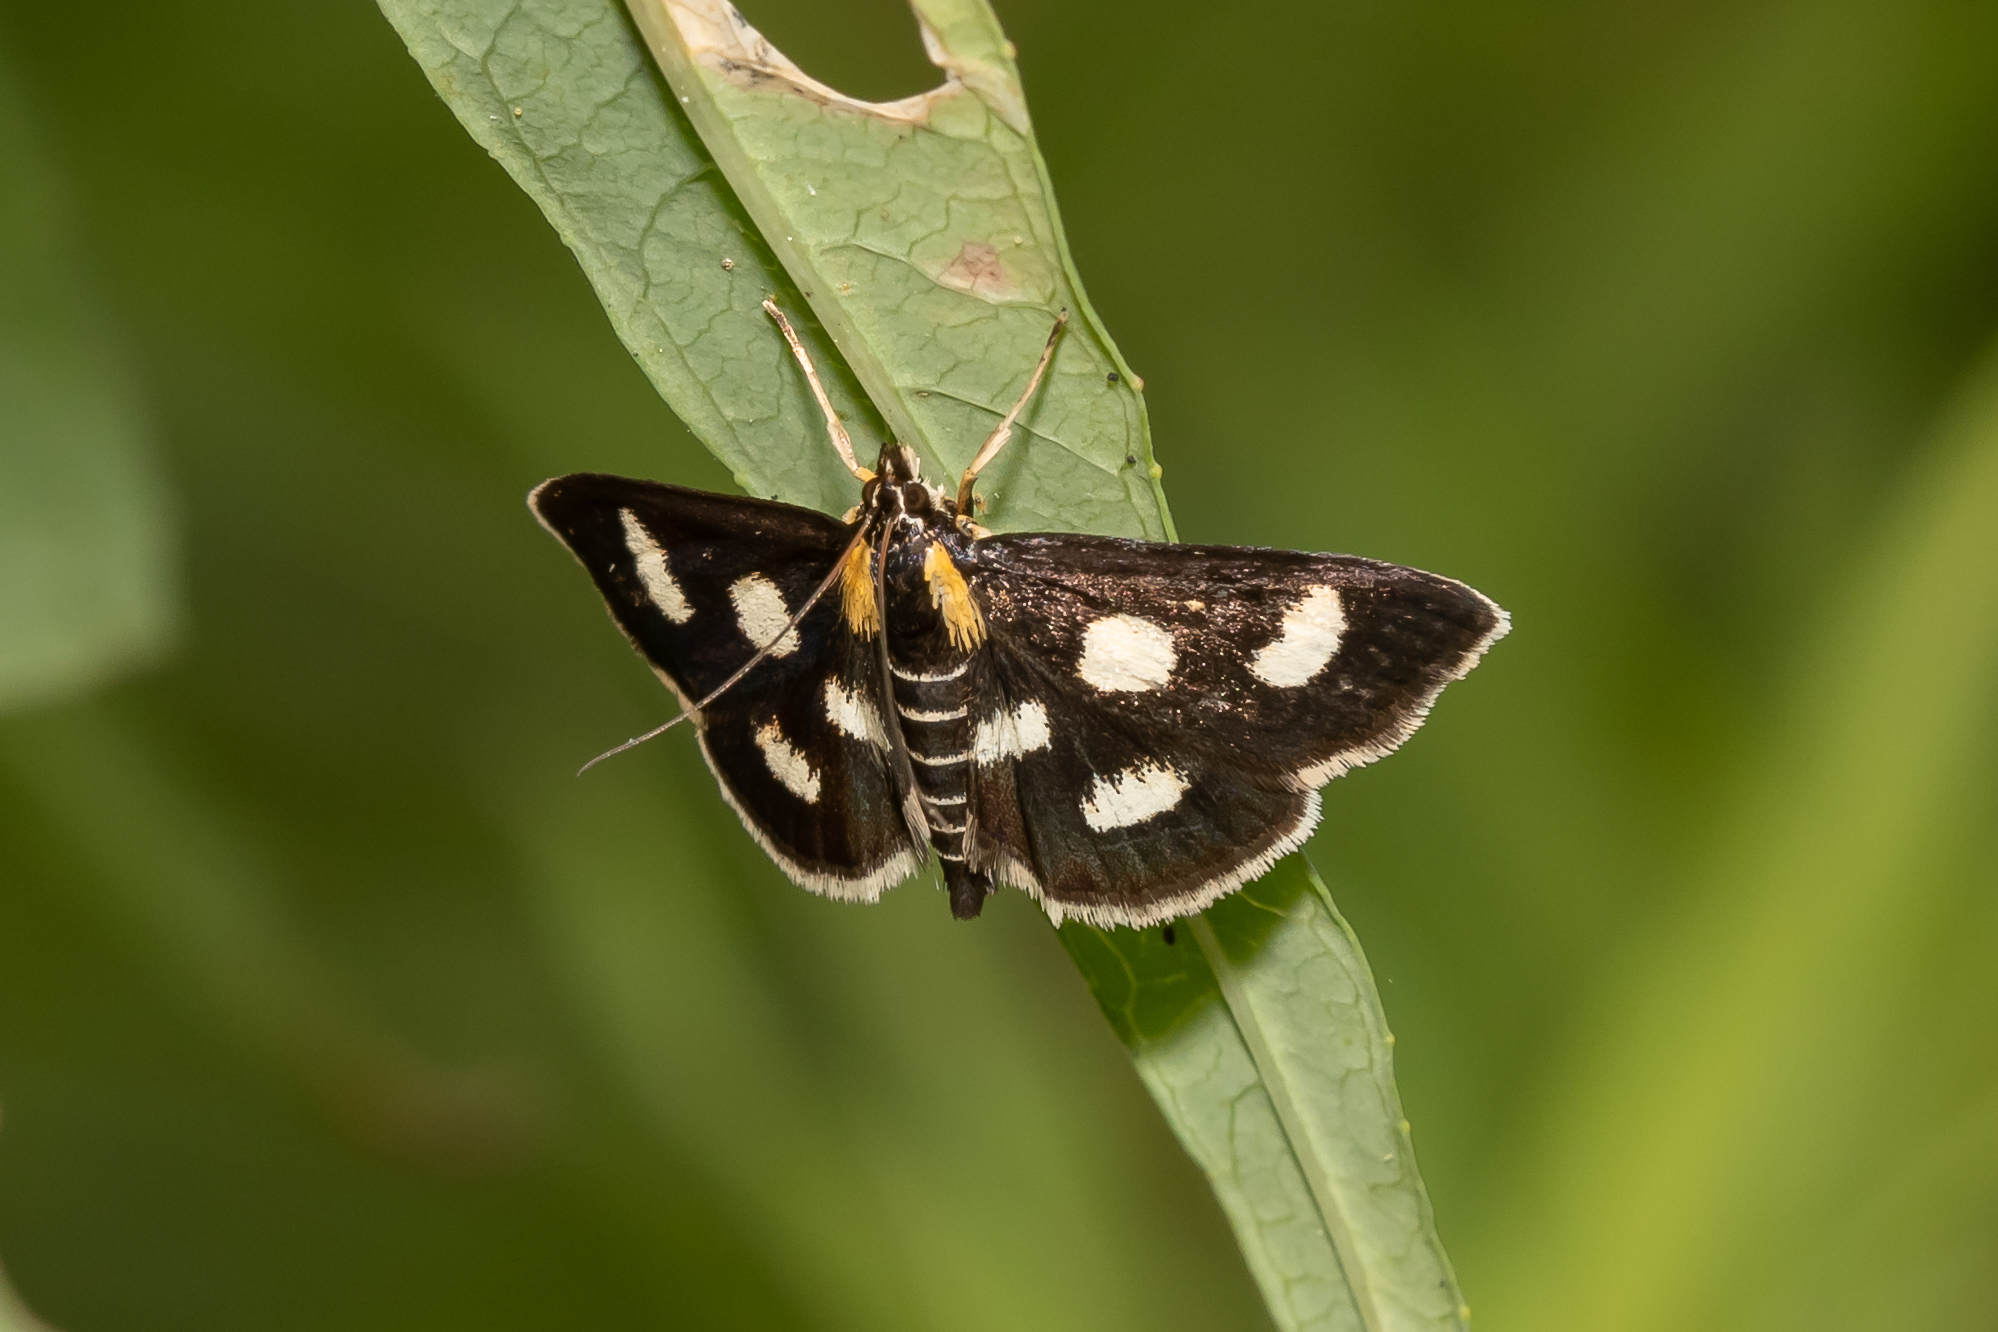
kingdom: Animalia
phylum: Arthropoda
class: Insecta
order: Lepidoptera
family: Crambidae
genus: Anania
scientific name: Anania funebris
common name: White-spotted sable moth
